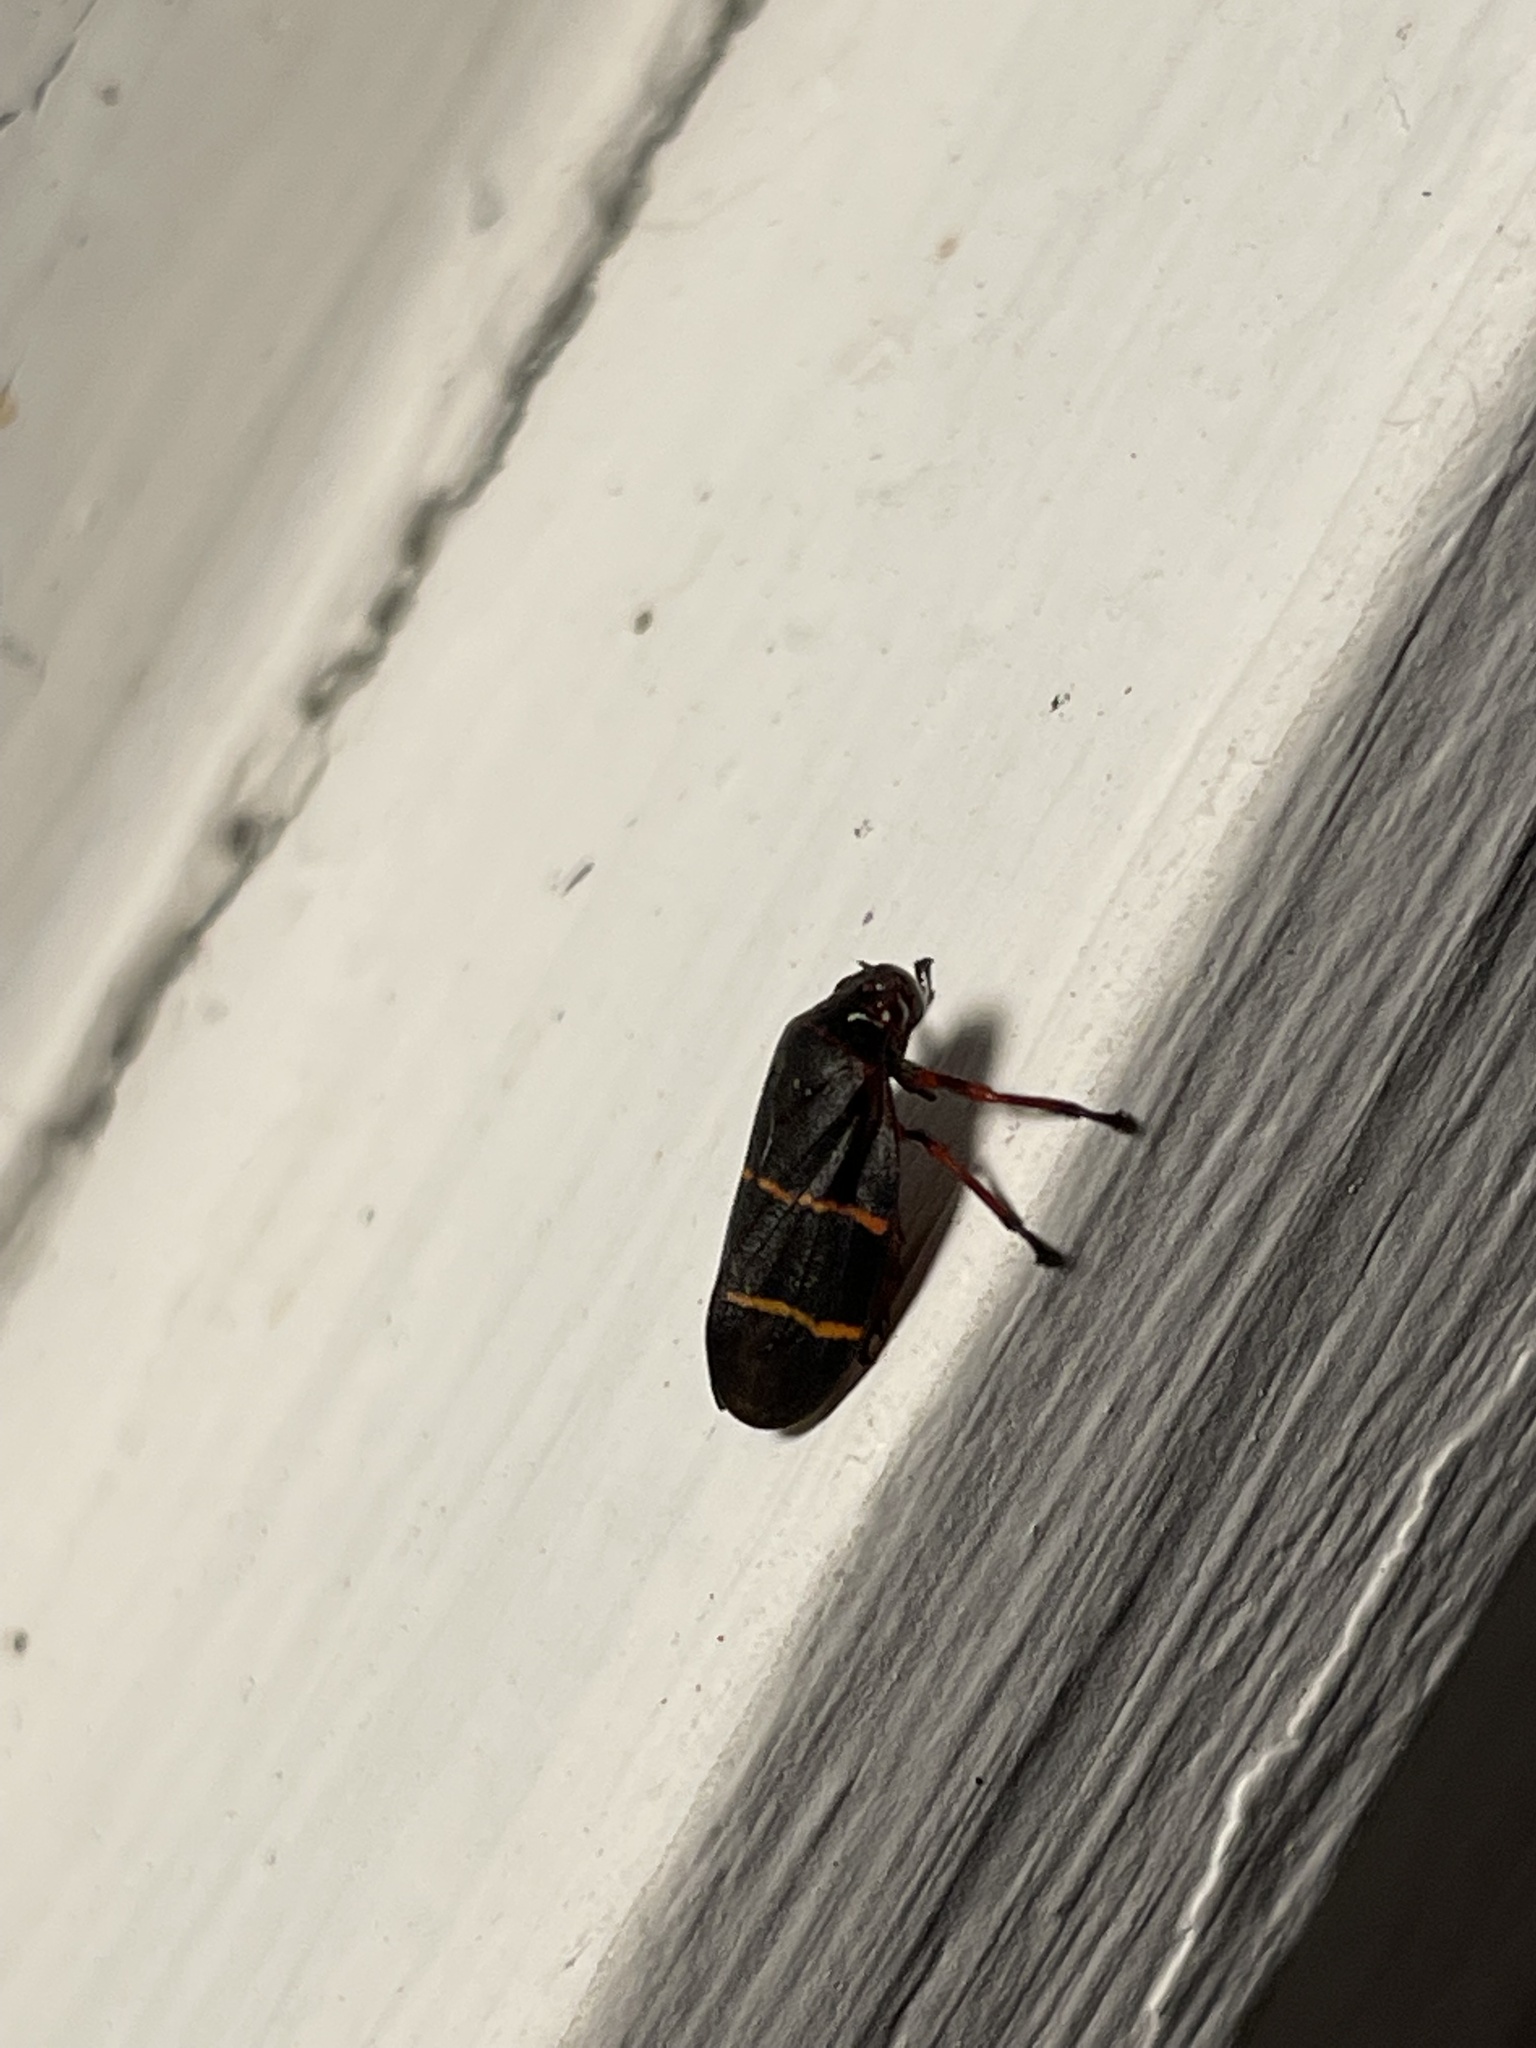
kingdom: Animalia
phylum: Arthropoda
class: Insecta
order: Hemiptera
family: Cercopidae
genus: Prosapia
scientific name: Prosapia bicincta
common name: Twolined spittlebug
